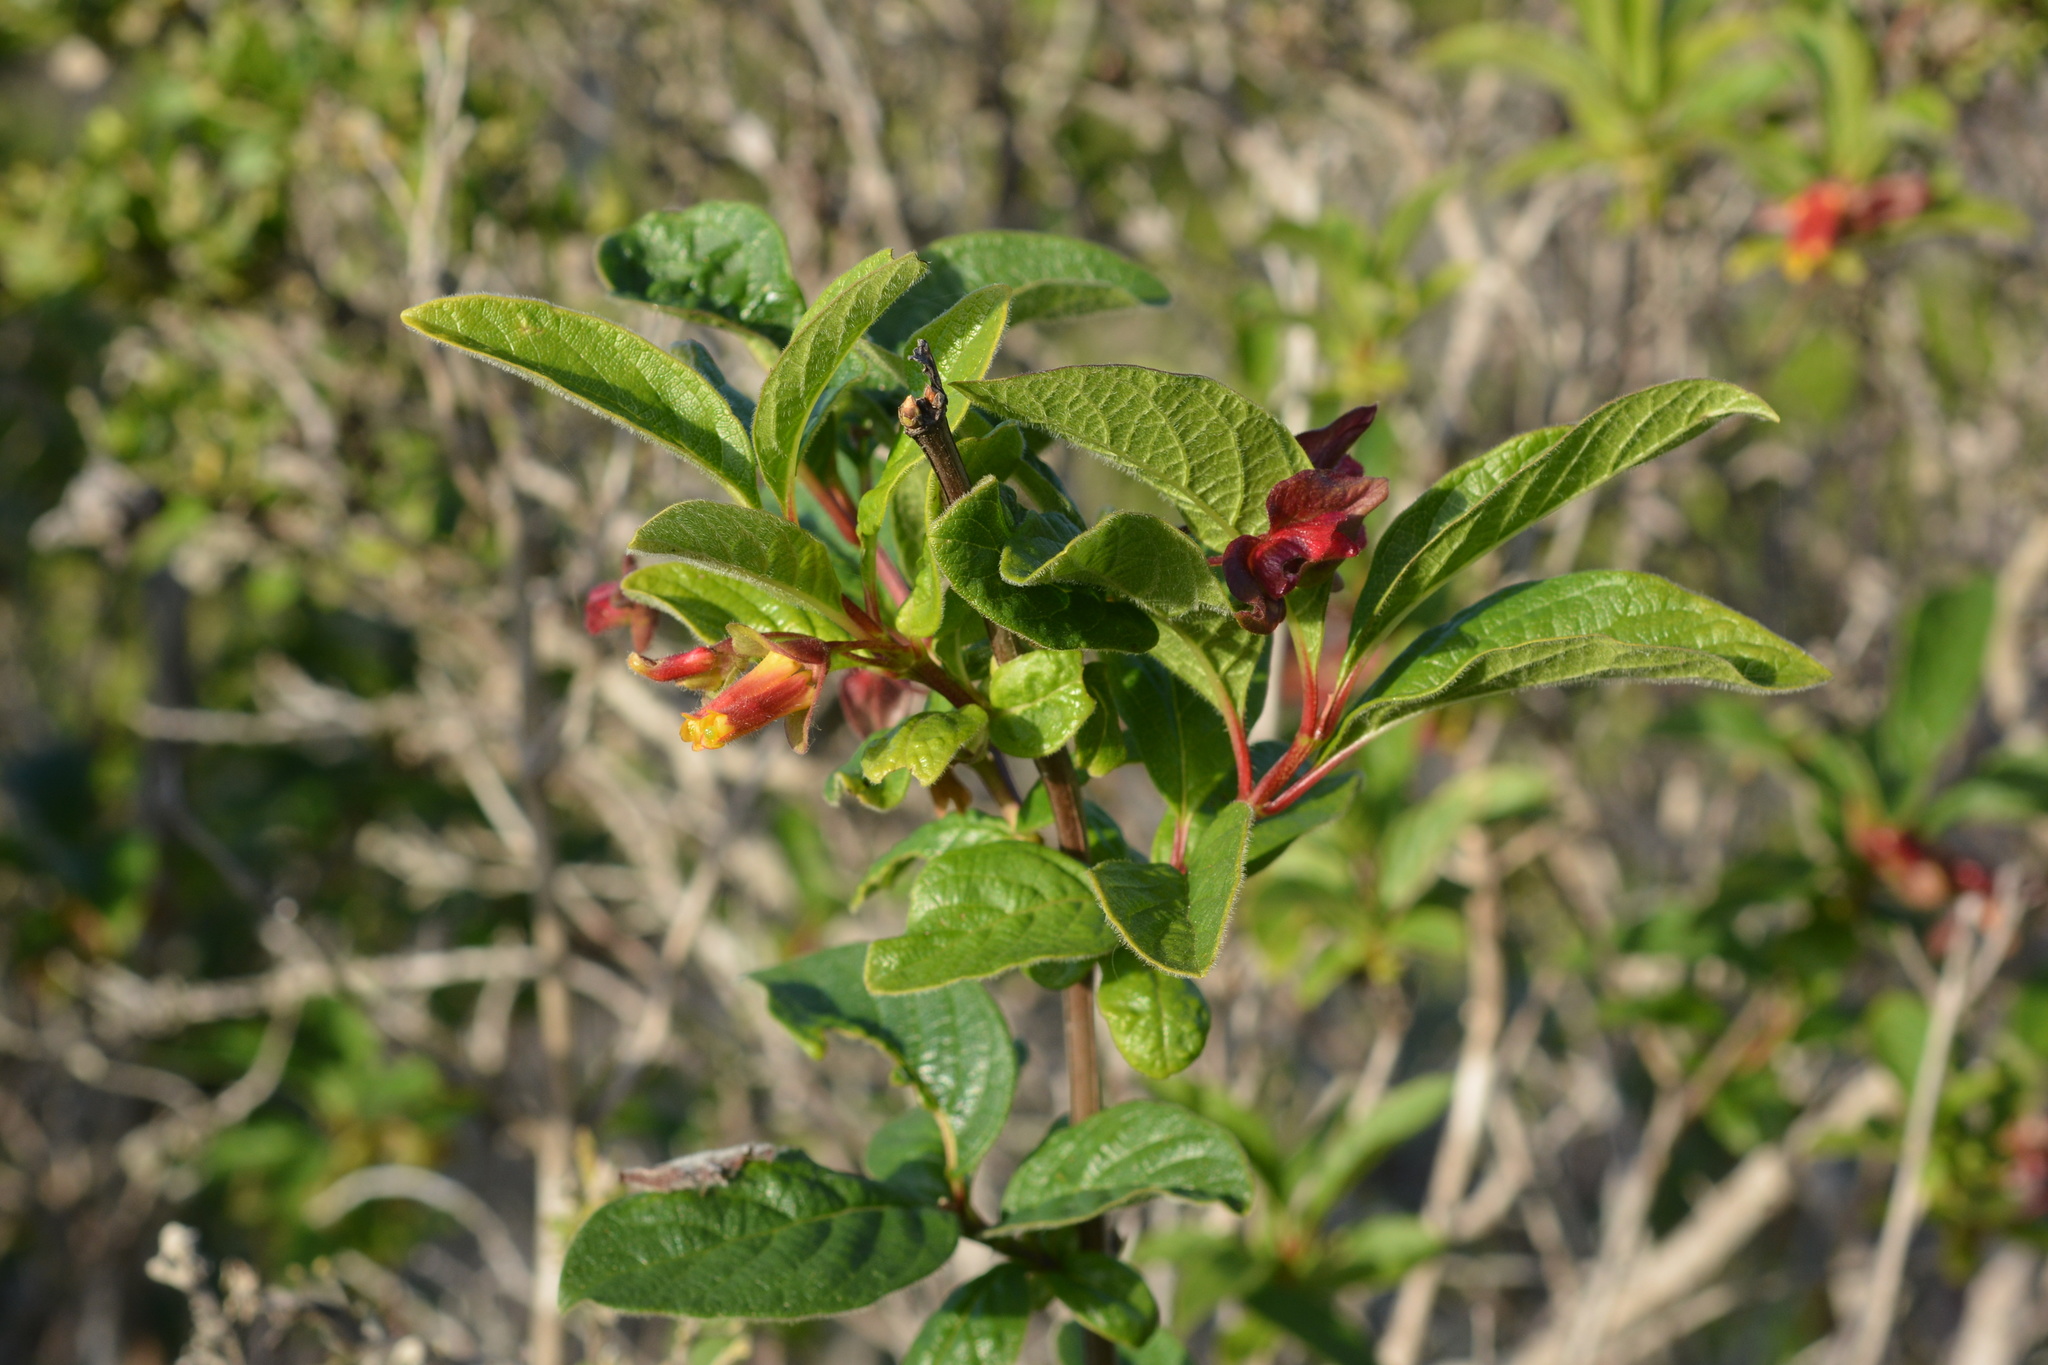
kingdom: Plantae
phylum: Tracheophyta
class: Magnoliopsida
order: Dipsacales
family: Caprifoliaceae
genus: Lonicera
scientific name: Lonicera involucrata
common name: Californian honeysuckle
